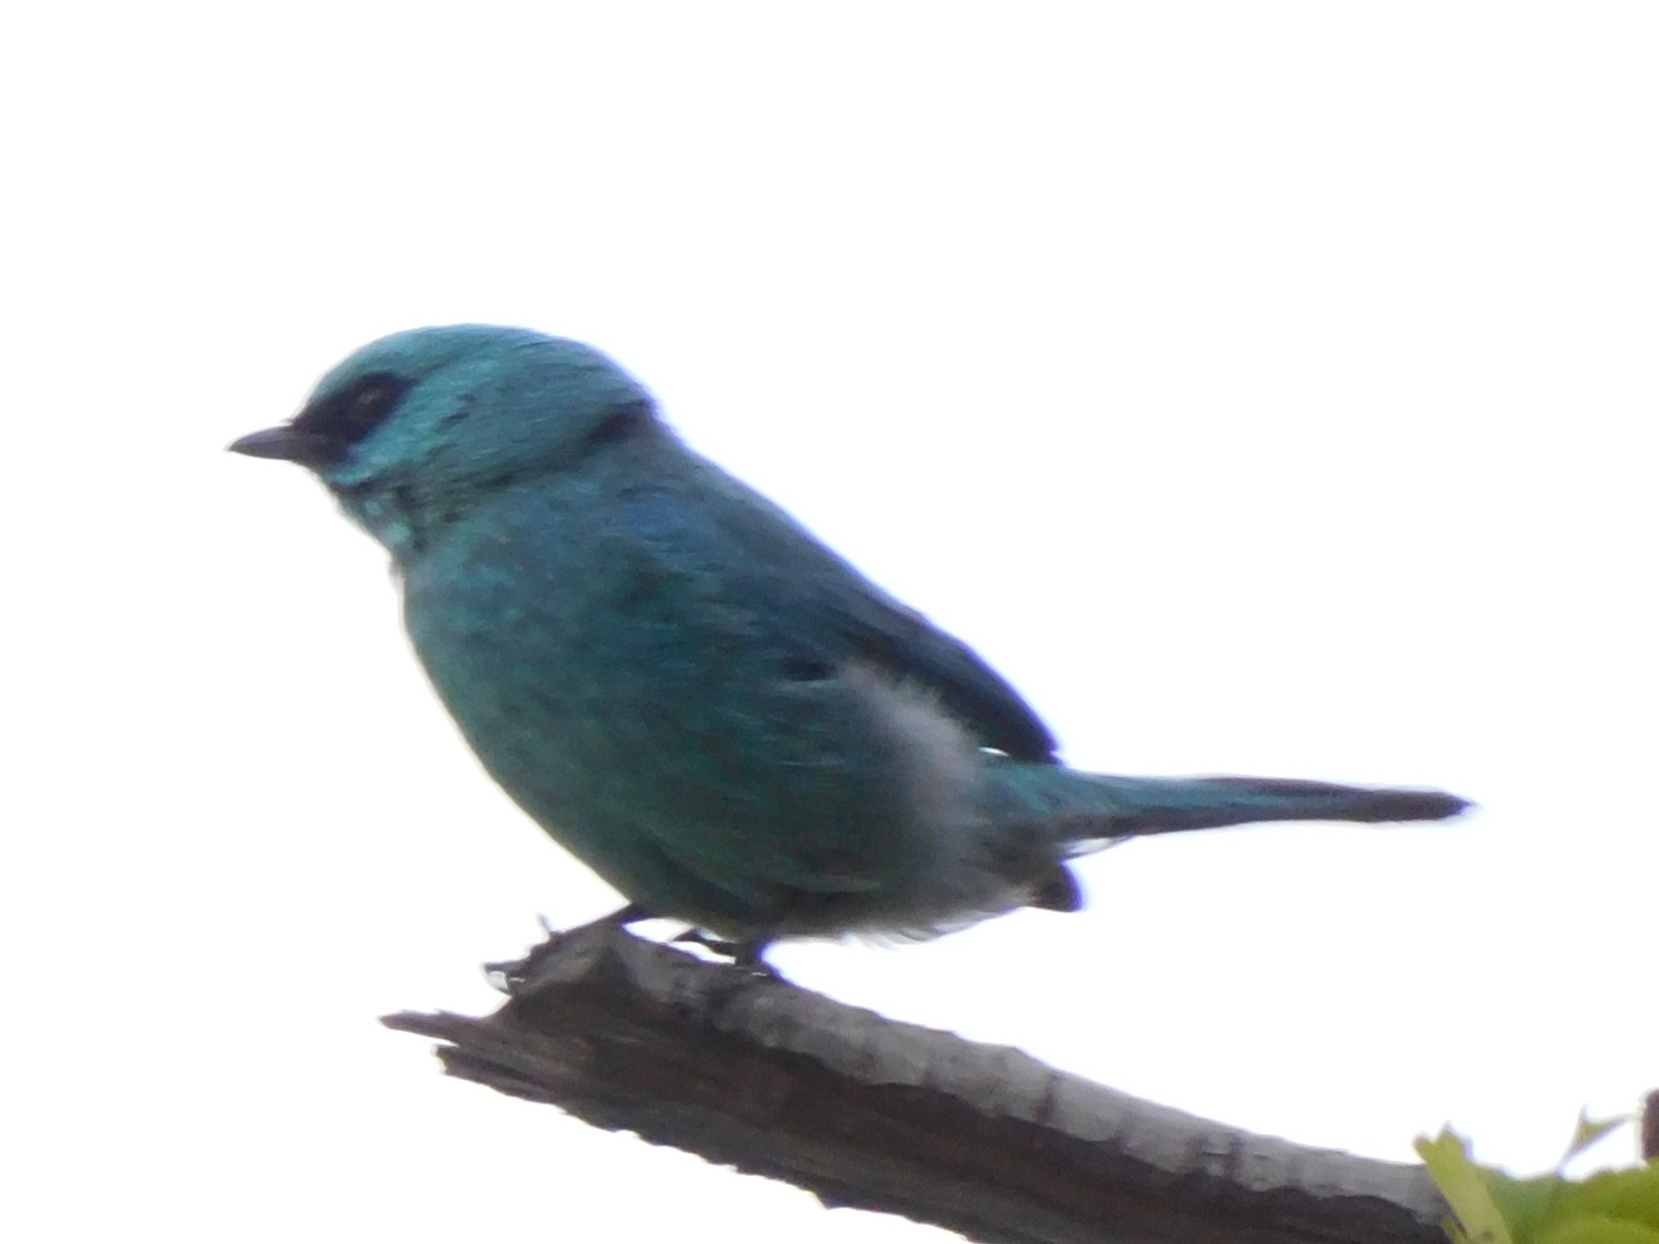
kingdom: Animalia
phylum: Chordata
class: Aves
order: Passeriformes
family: Muscicapidae
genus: Eumyias
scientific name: Eumyias thalassinus
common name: Verditer flycatcher
